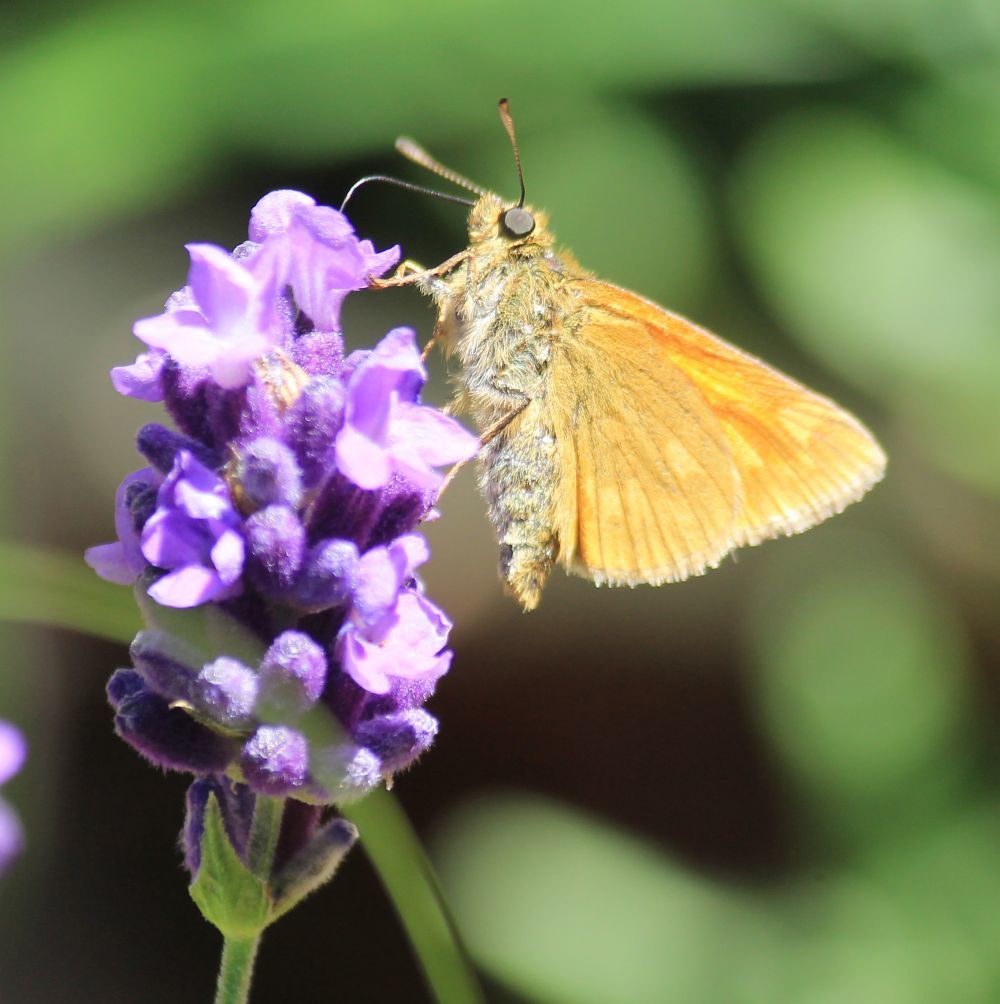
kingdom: Animalia
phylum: Arthropoda
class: Insecta
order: Lepidoptera
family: Hesperiidae
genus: Ochlodes
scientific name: Ochlodes venata
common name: Large skipper
